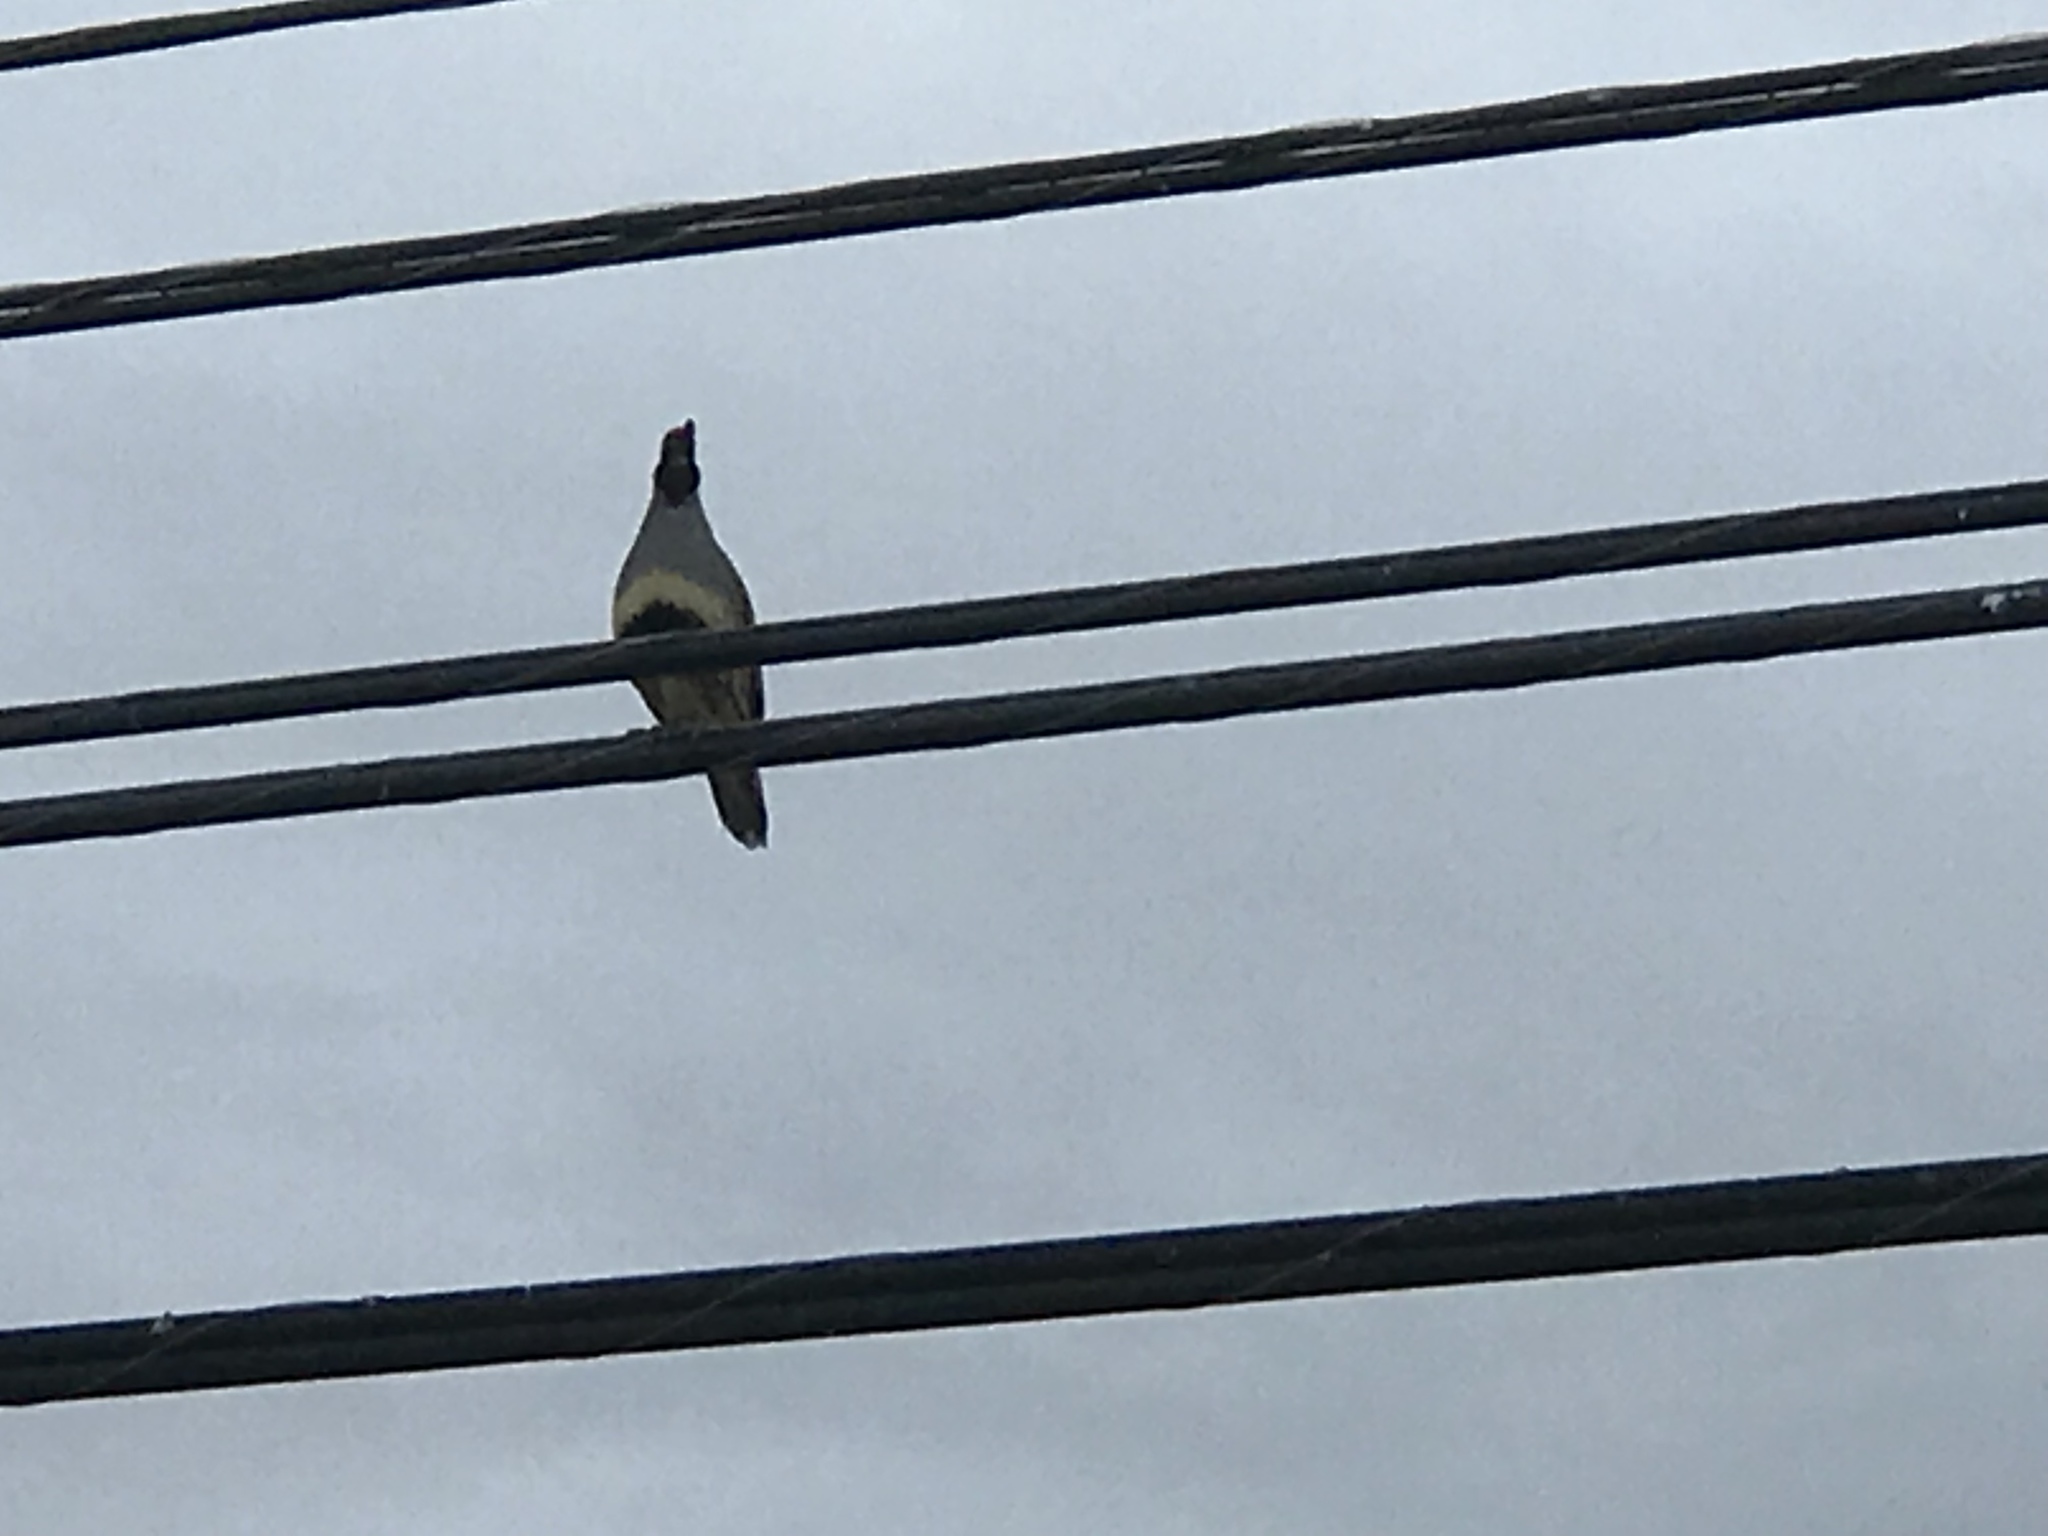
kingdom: Animalia
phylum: Chordata
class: Aves
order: Galliformes
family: Odontophoridae
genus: Callipepla
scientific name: Callipepla gambelii
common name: Gambel's quail
